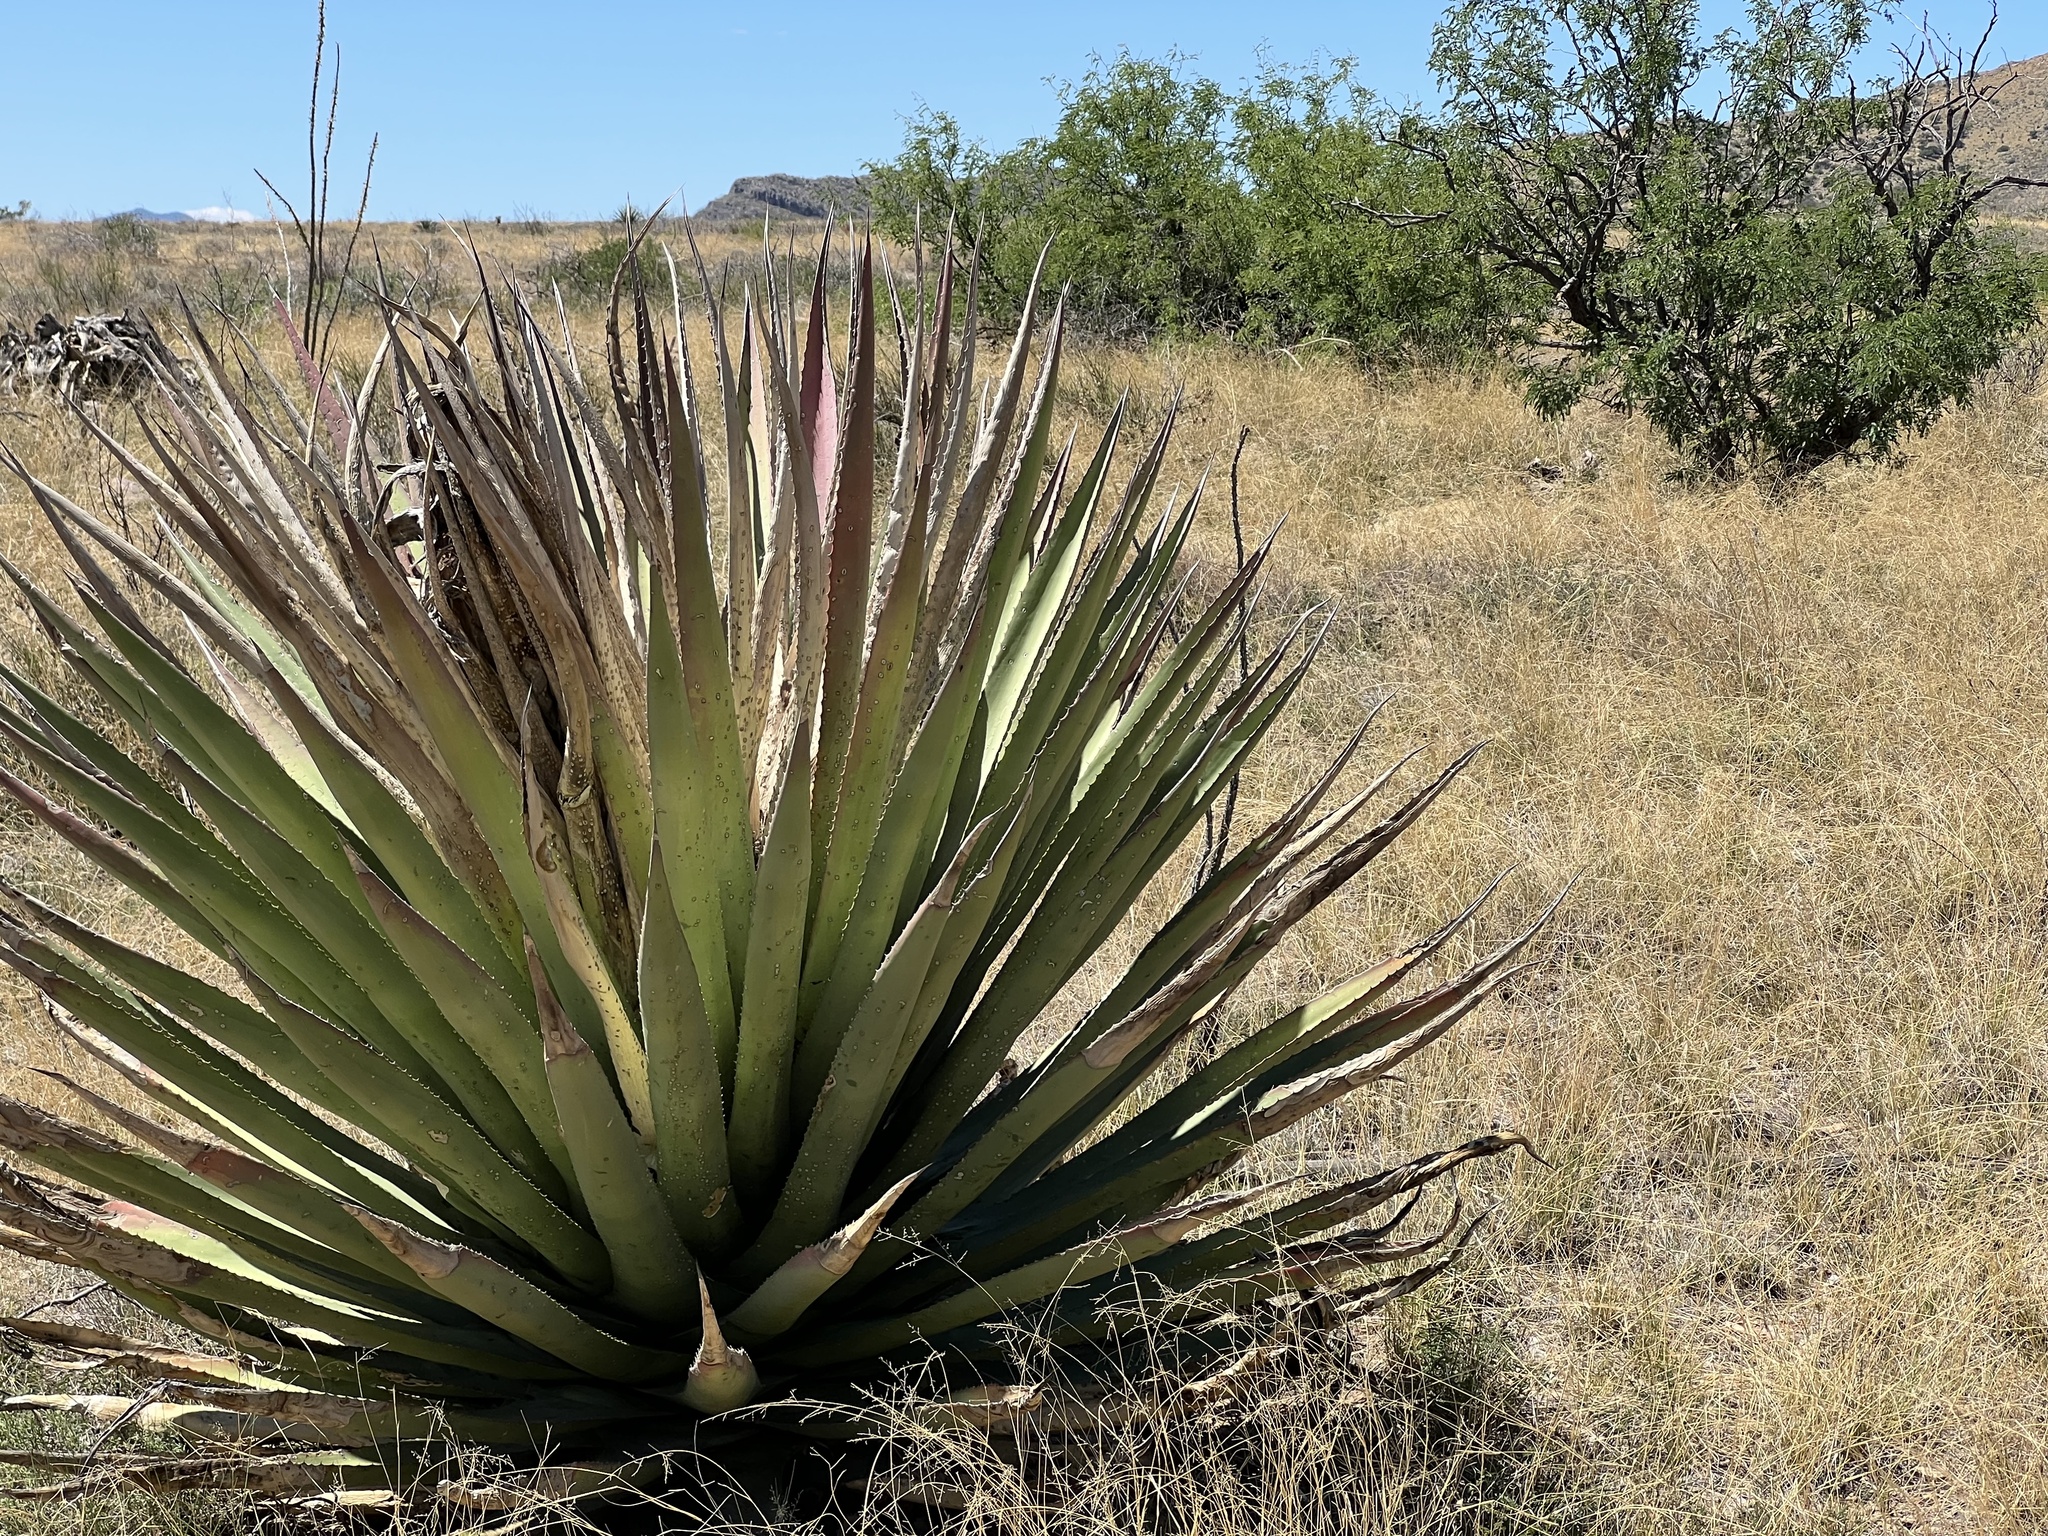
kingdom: Plantae
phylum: Tracheophyta
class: Liliopsida
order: Asparagales
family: Asparagaceae
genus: Agave
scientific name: Agave palmeri
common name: Palmer agave
